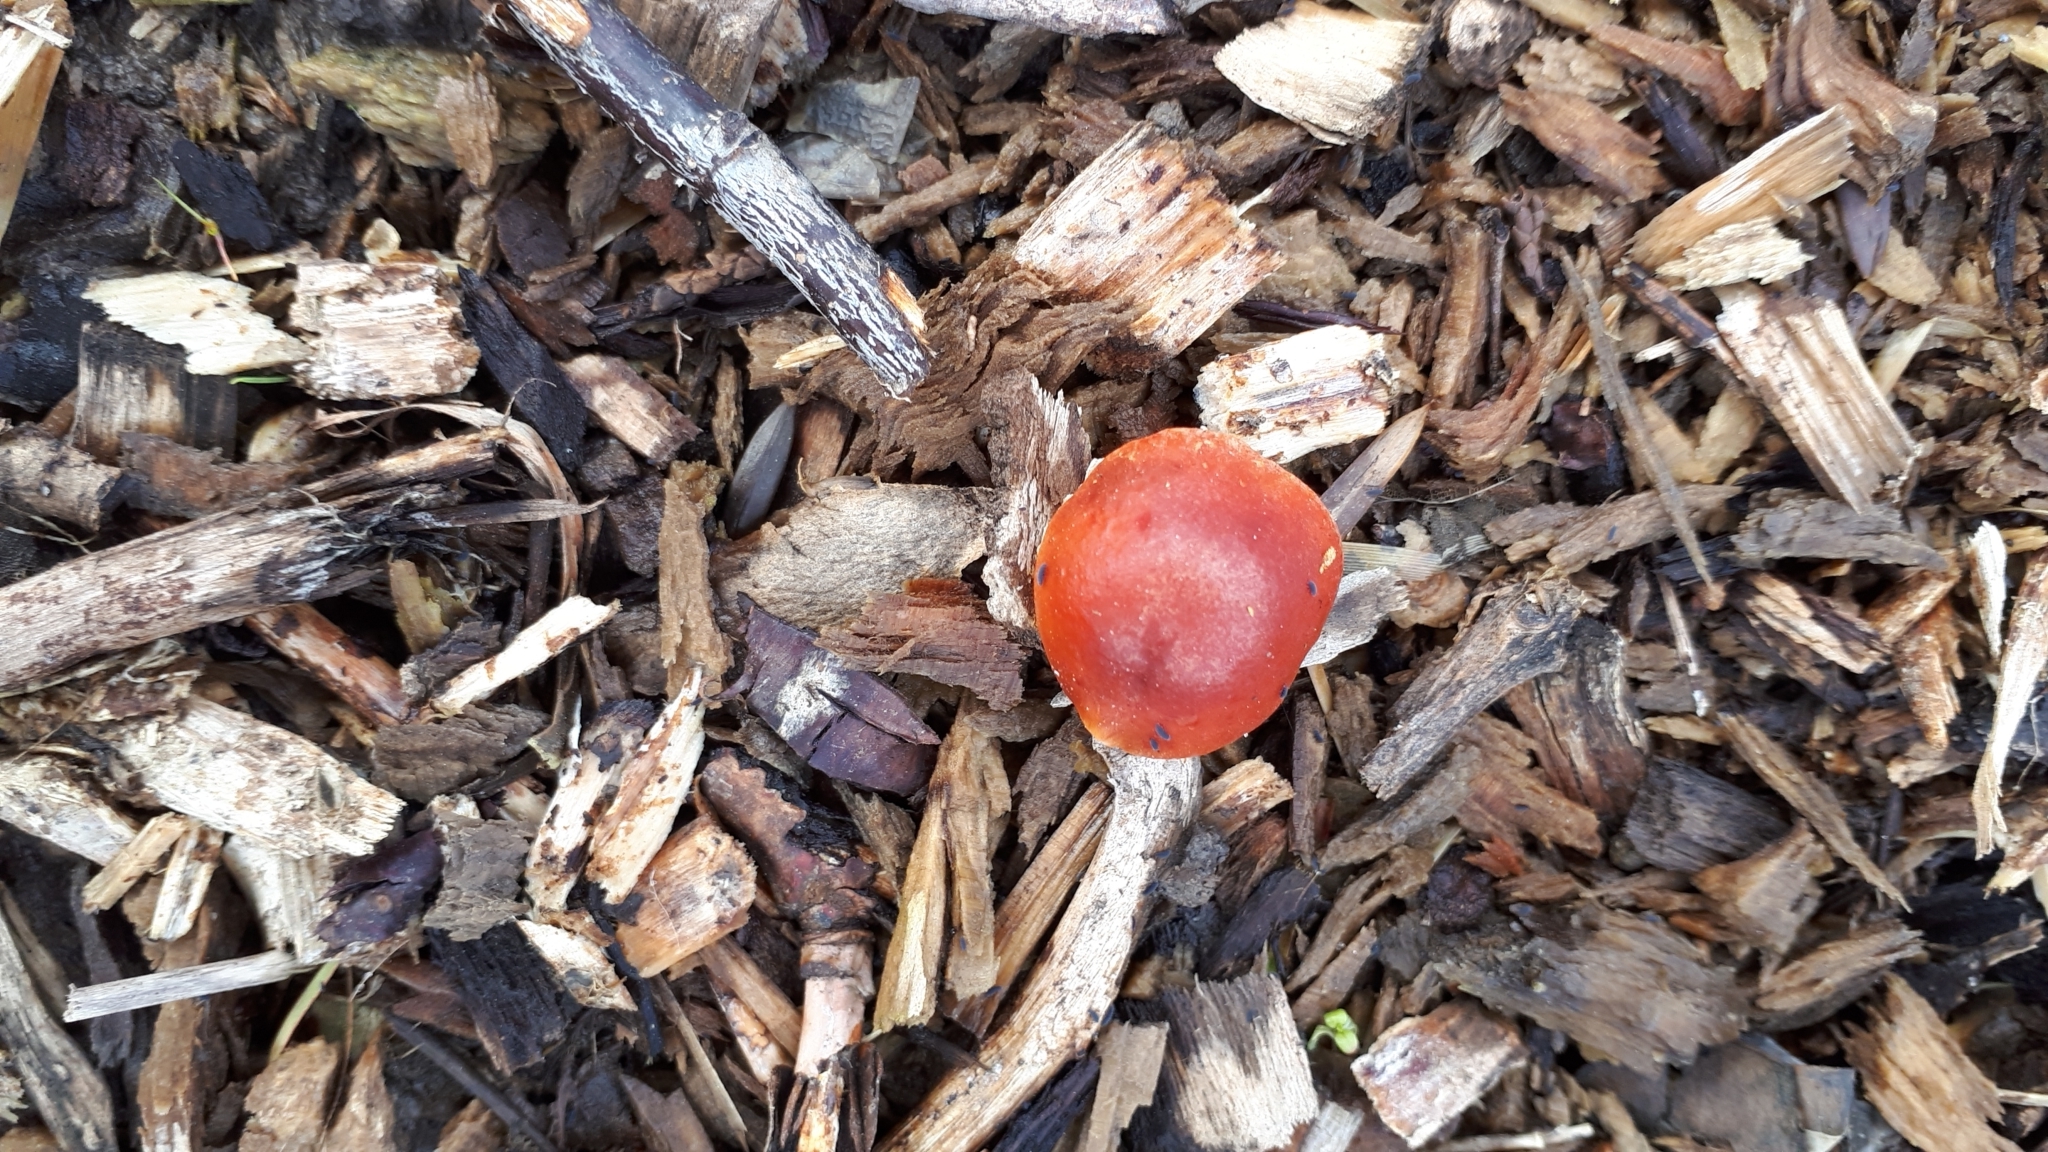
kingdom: Fungi
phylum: Basidiomycota
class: Agaricomycetes
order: Agaricales
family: Strophariaceae
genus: Leratiomyces
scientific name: Leratiomyces ceres
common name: Redlead roundhead
